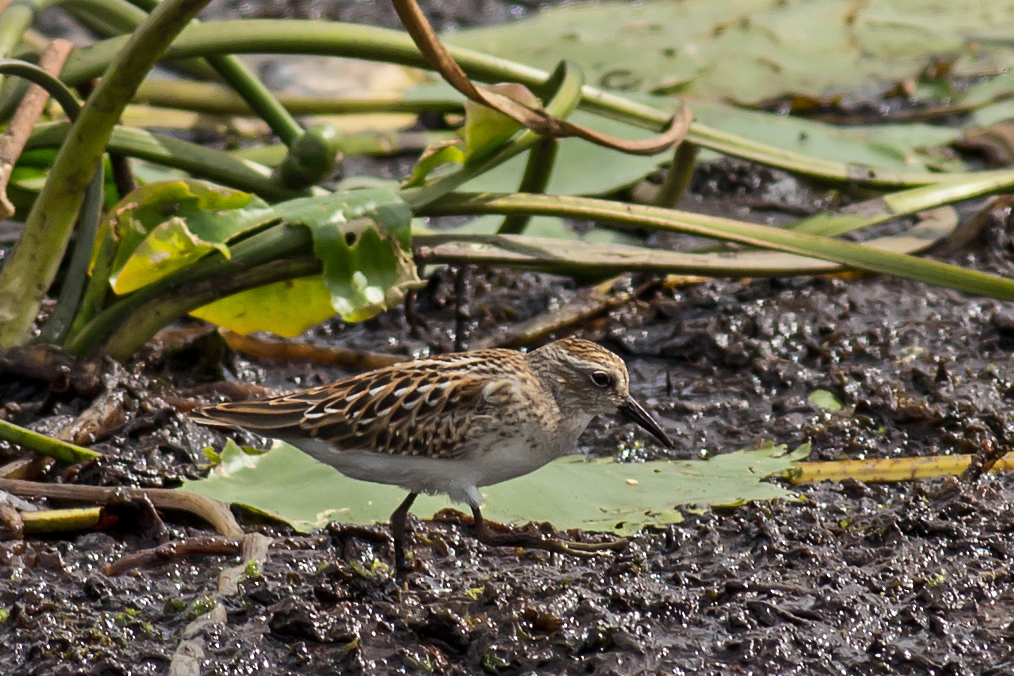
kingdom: Animalia
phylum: Chordata
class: Aves
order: Charadriiformes
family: Scolopacidae
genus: Calidris
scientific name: Calidris minutilla
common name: Least sandpiper
